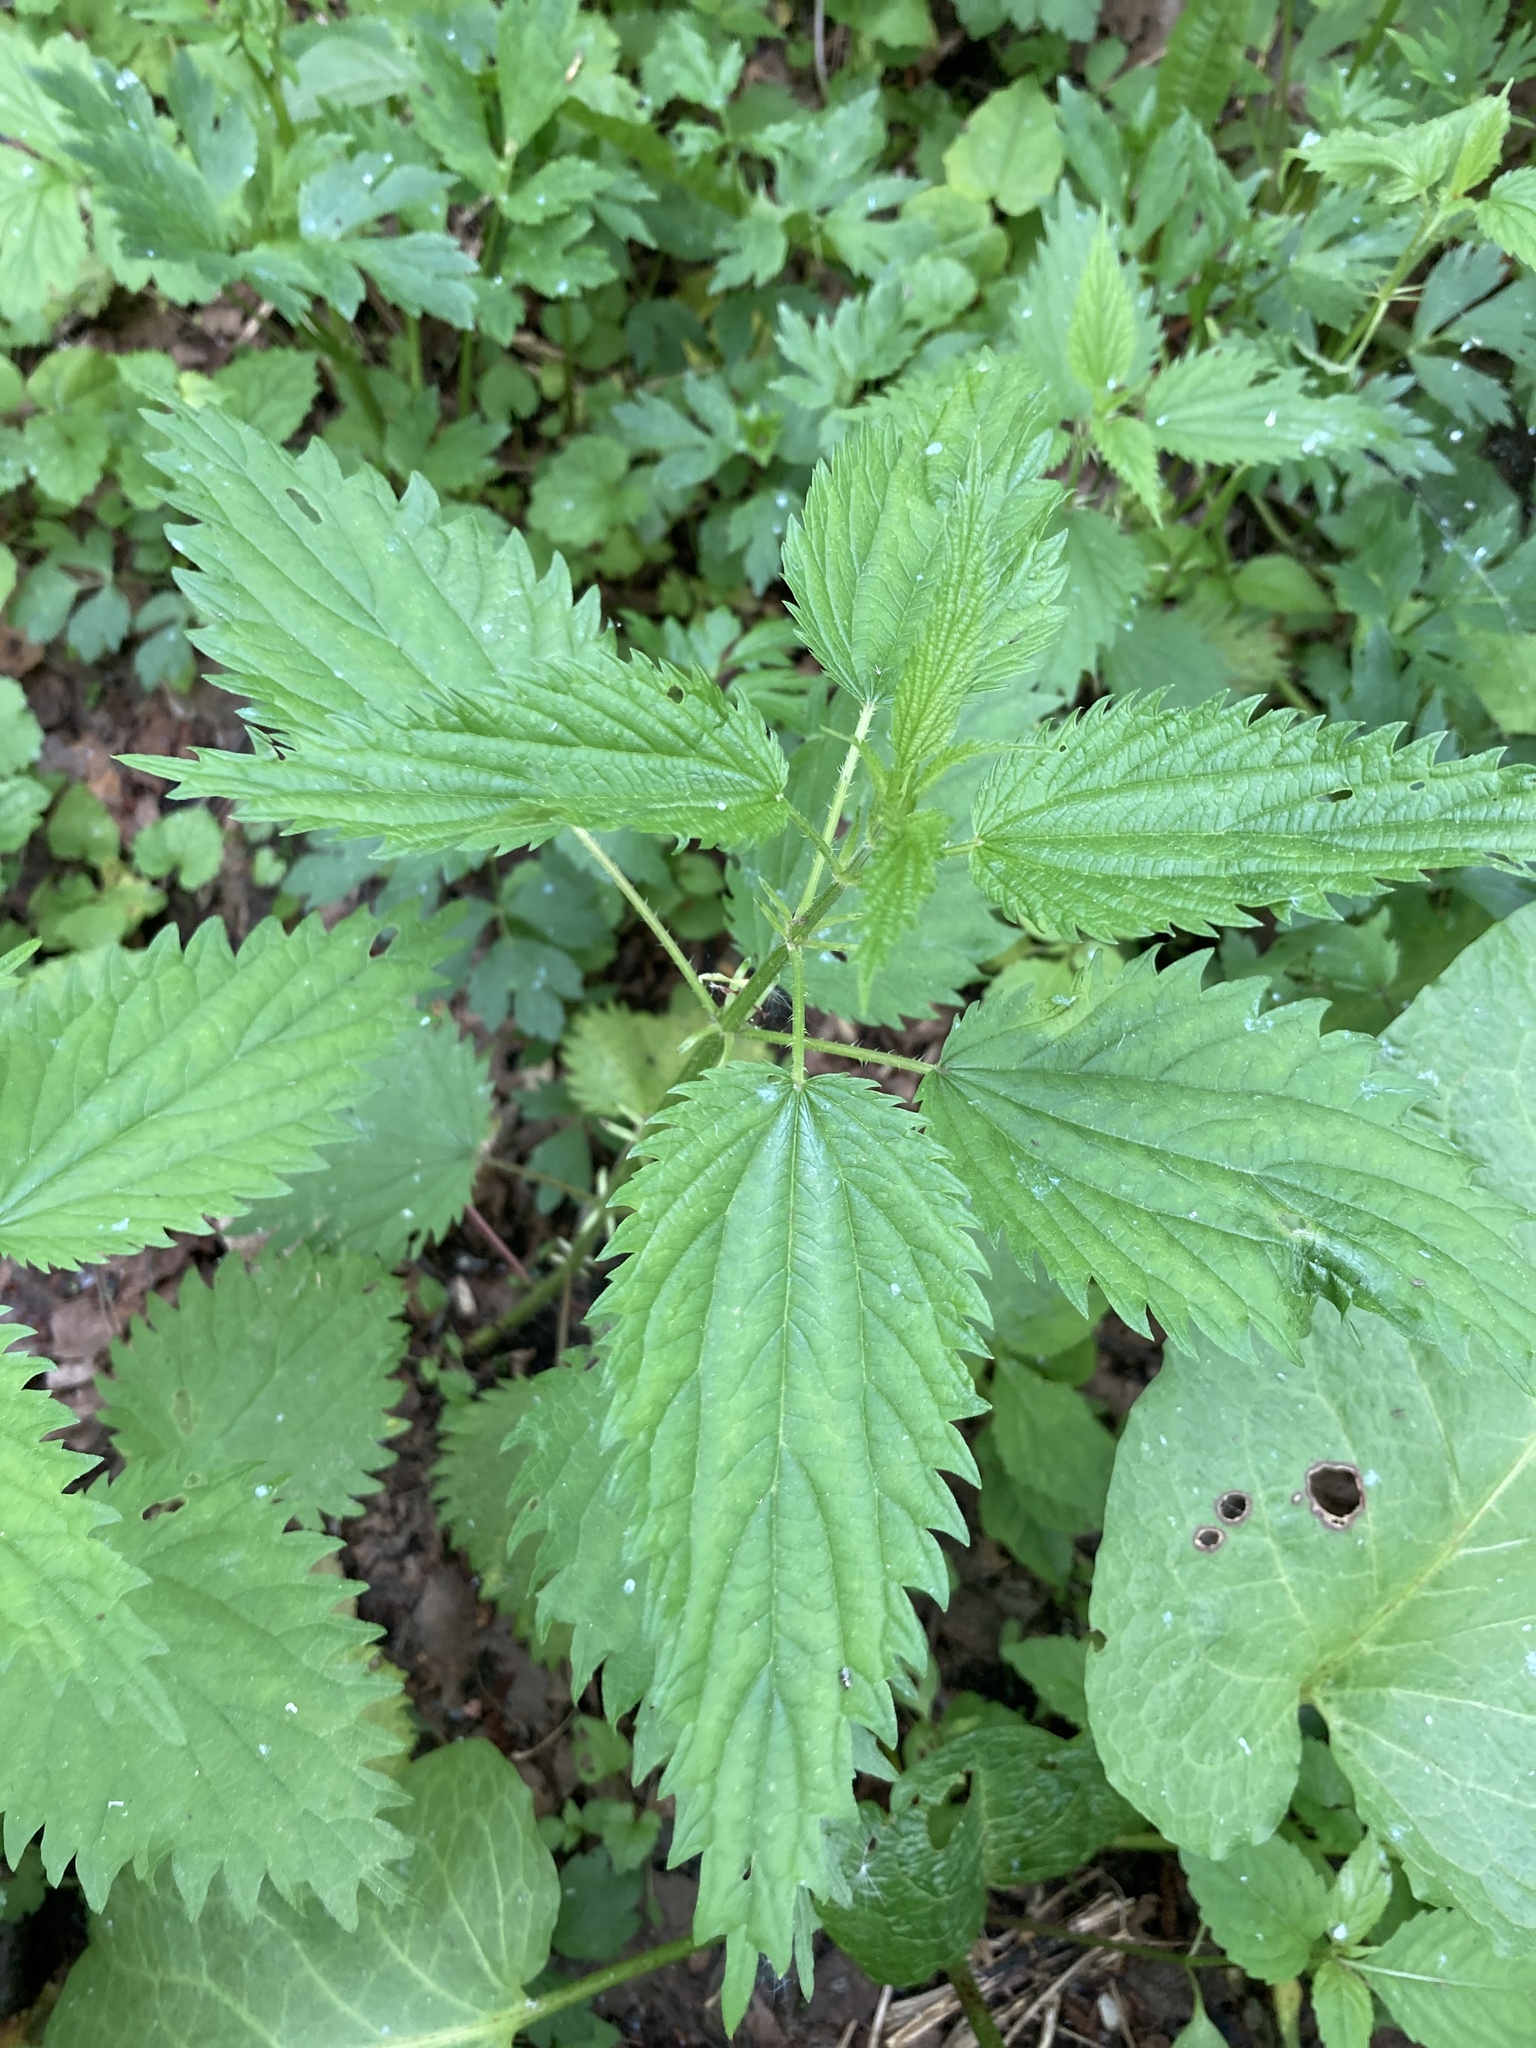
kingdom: Plantae
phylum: Tracheophyta
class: Magnoliopsida
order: Rosales
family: Urticaceae
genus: Urtica
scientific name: Urtica dioica
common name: Common nettle
